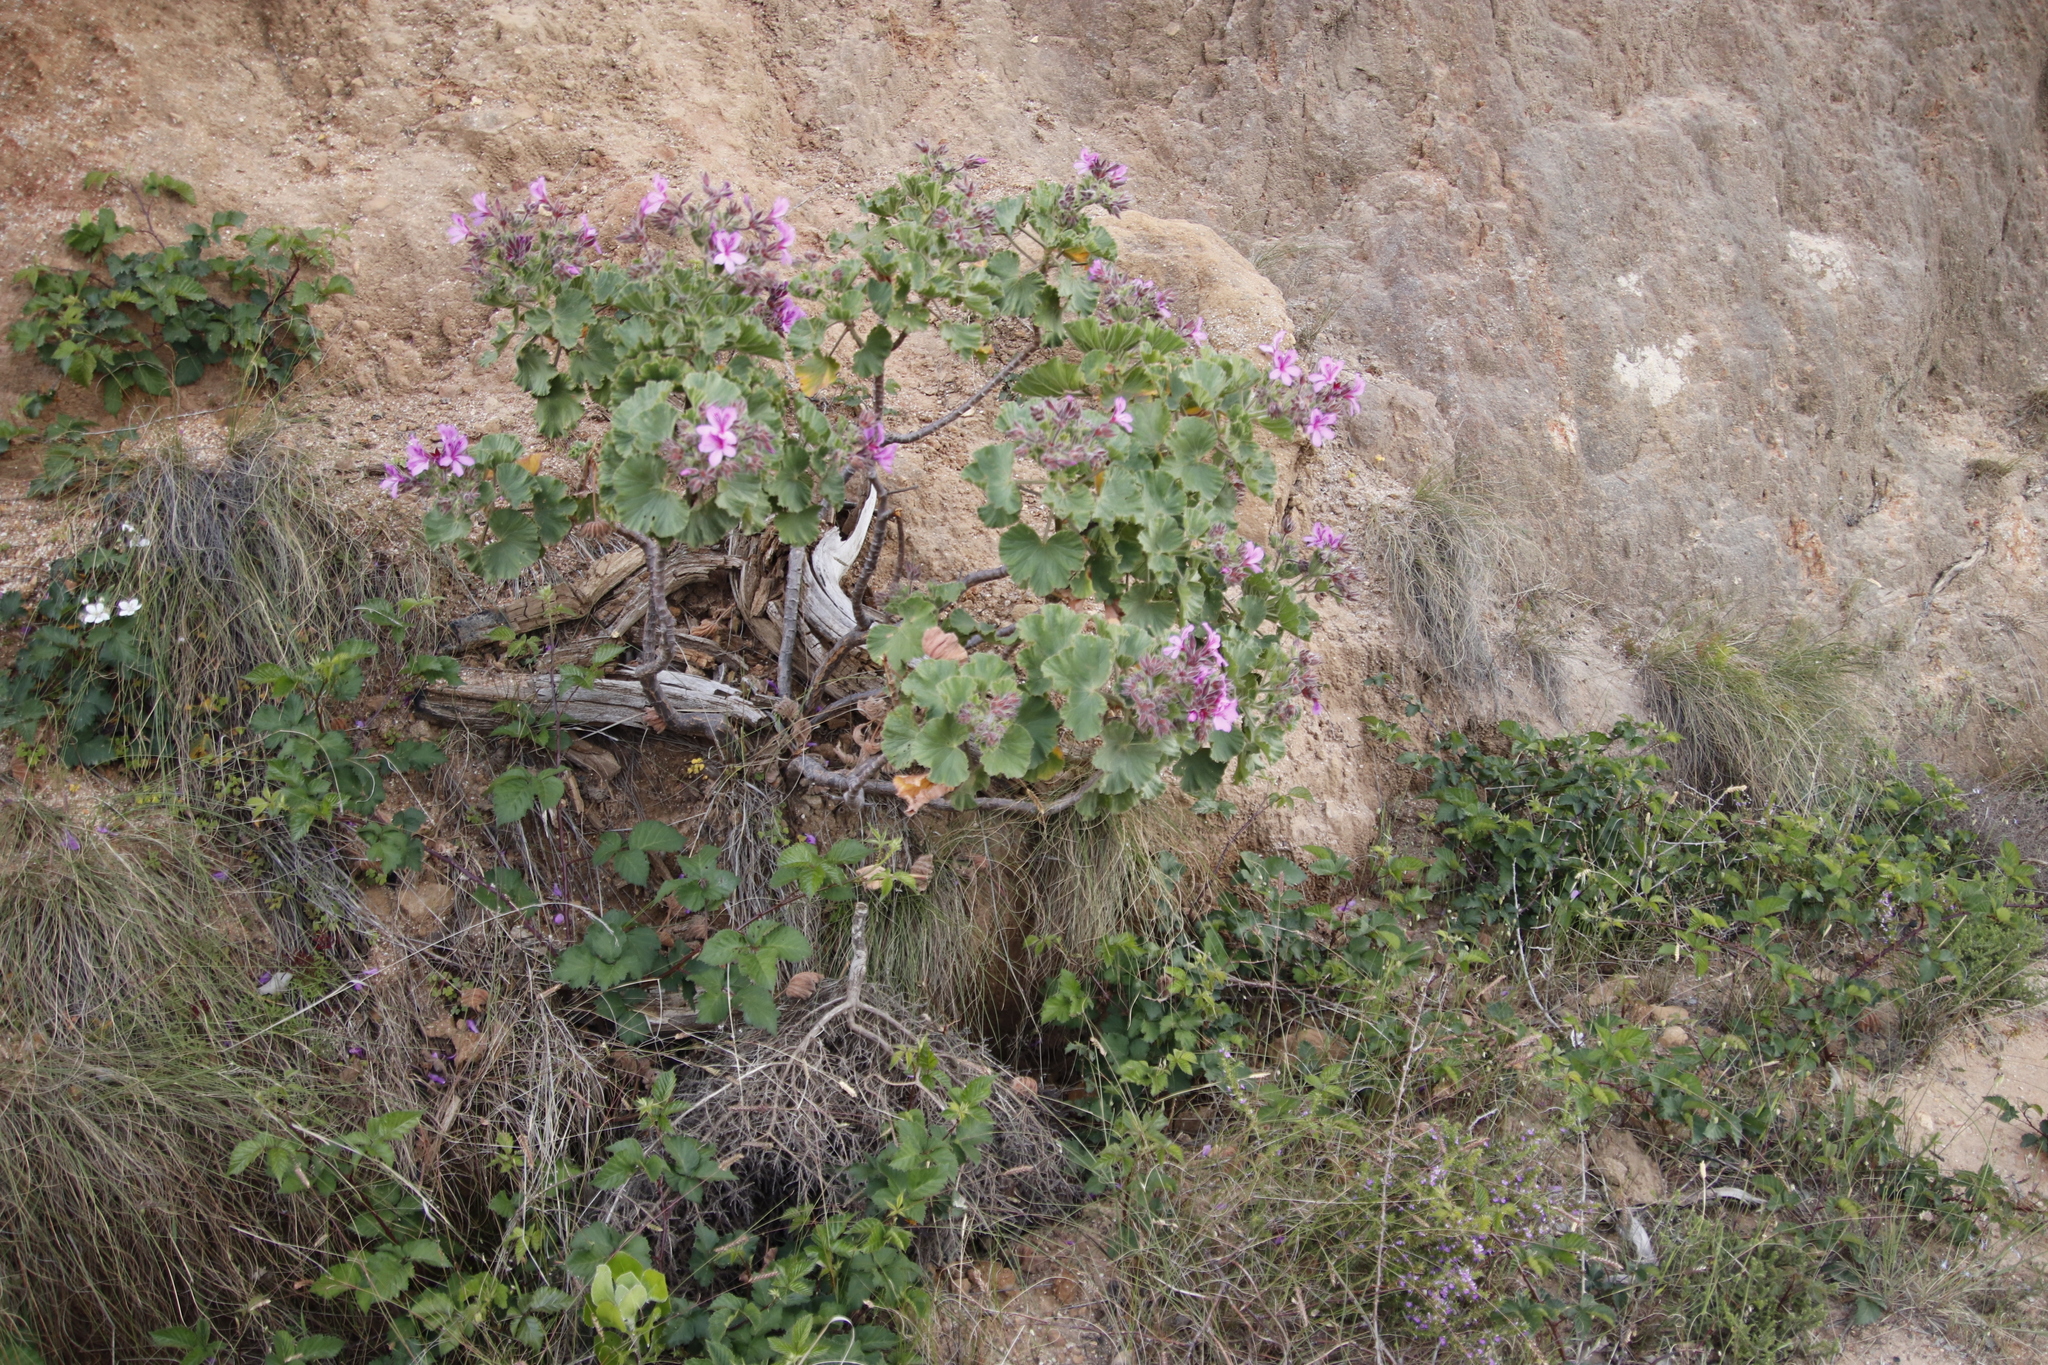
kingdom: Plantae
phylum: Tracheophyta
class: Magnoliopsida
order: Geraniales
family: Geraniaceae
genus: Pelargonium
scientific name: Pelargonium cucullatum
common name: Tree pelargonium
